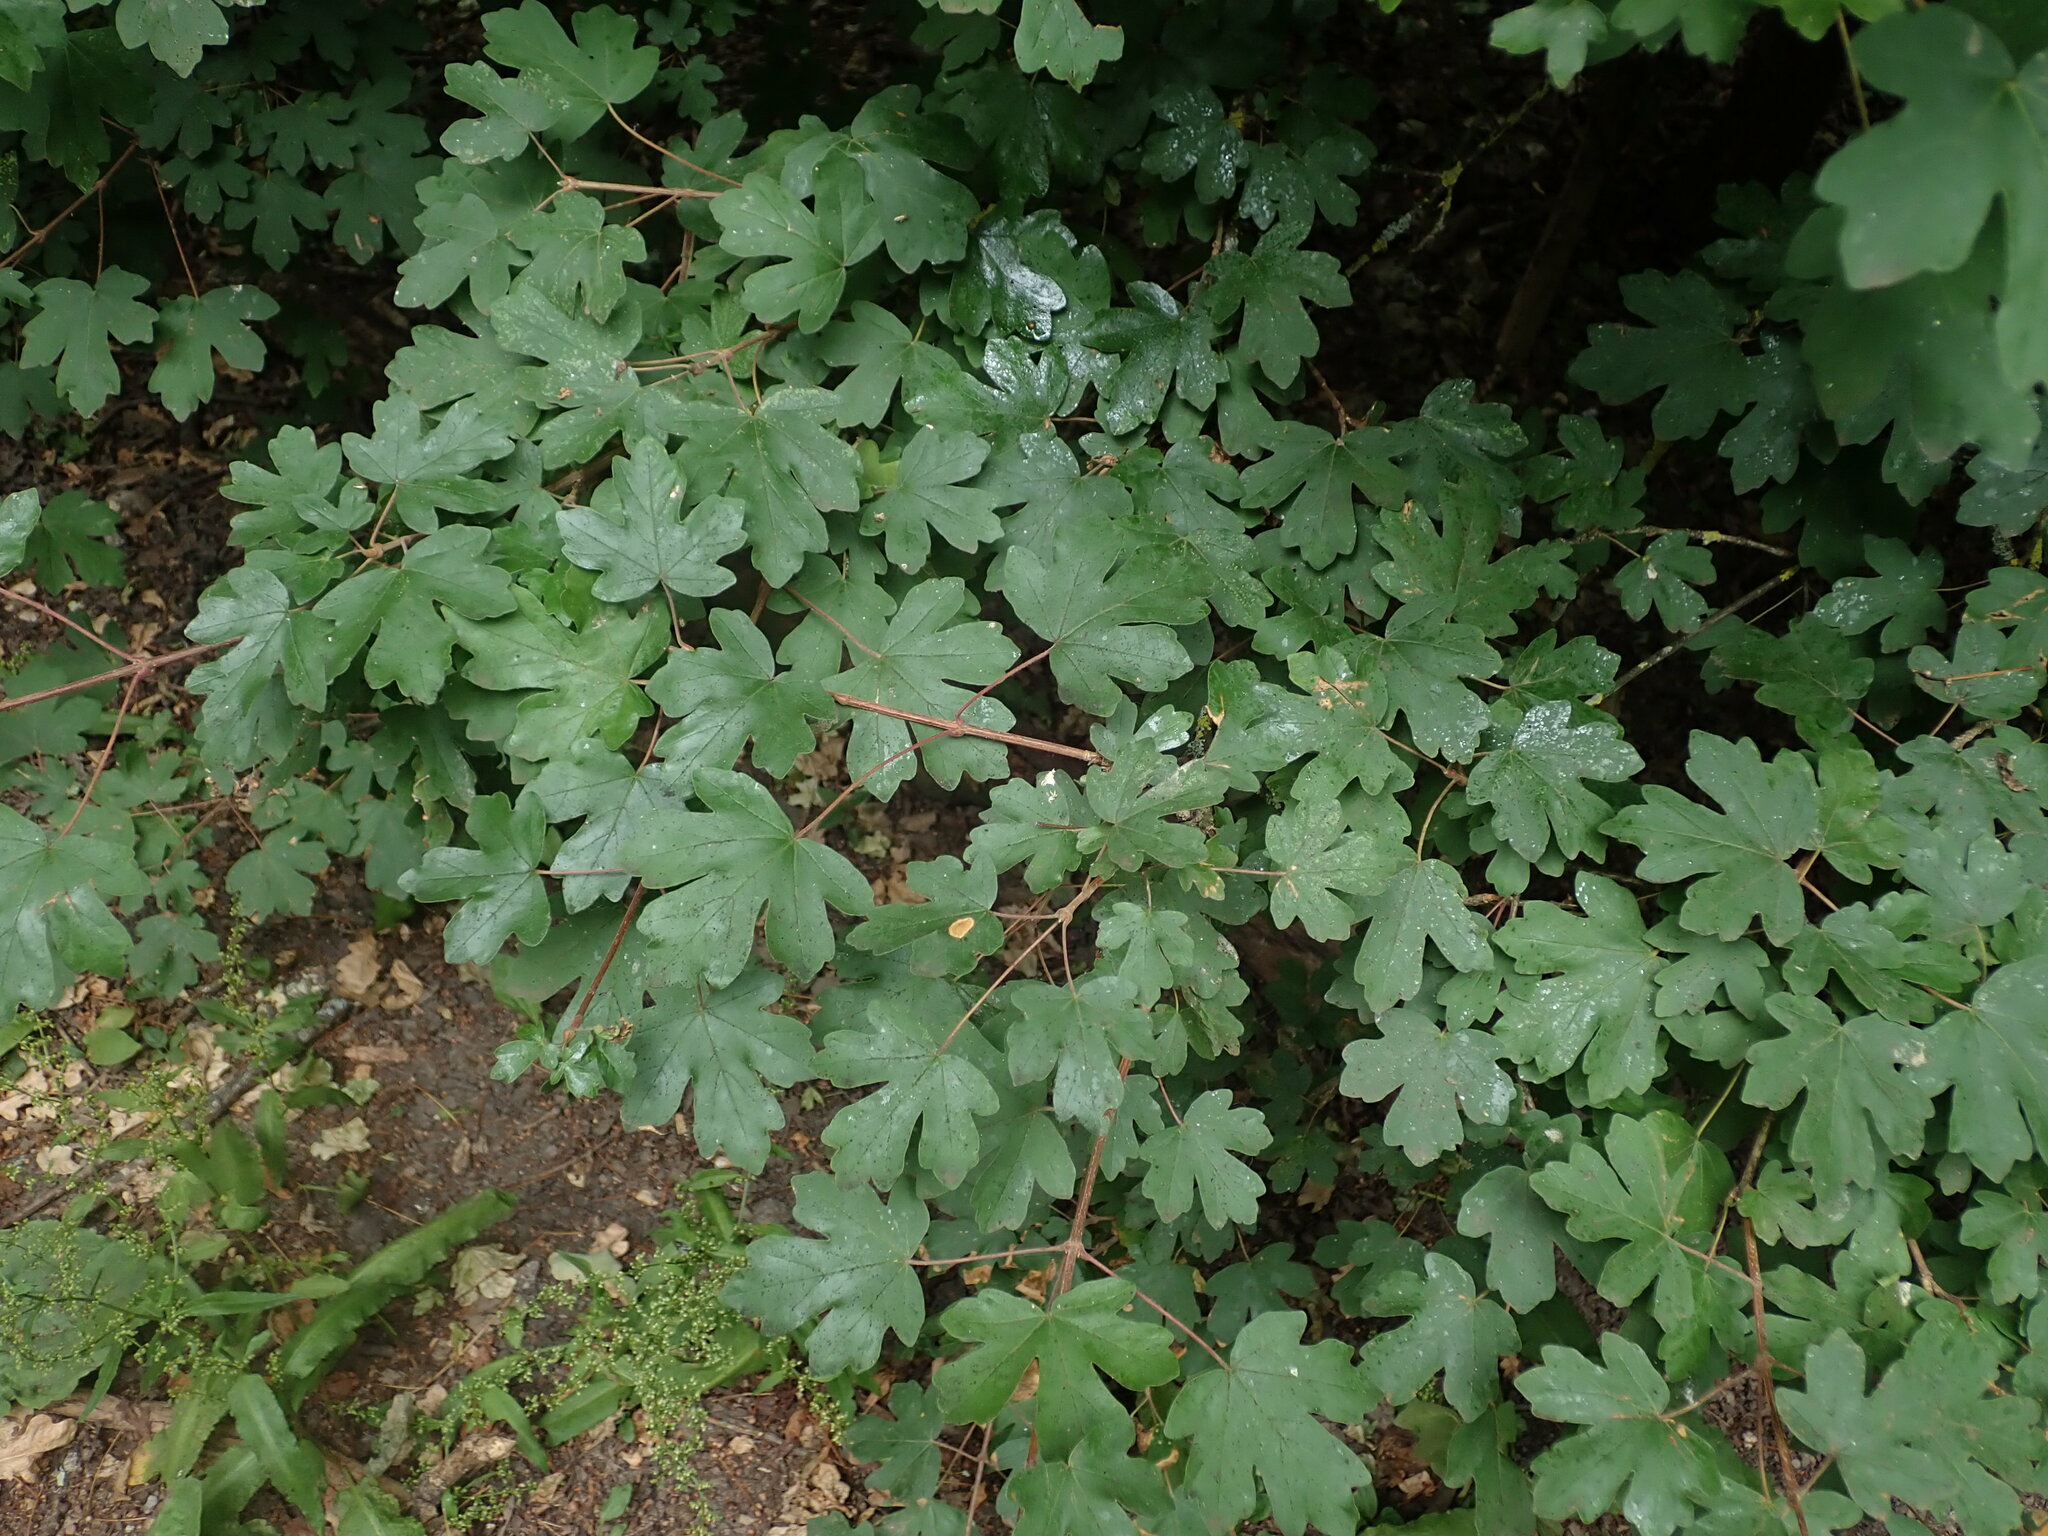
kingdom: Plantae
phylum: Tracheophyta
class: Magnoliopsida
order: Sapindales
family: Sapindaceae
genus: Acer
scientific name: Acer campestre
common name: Field maple
